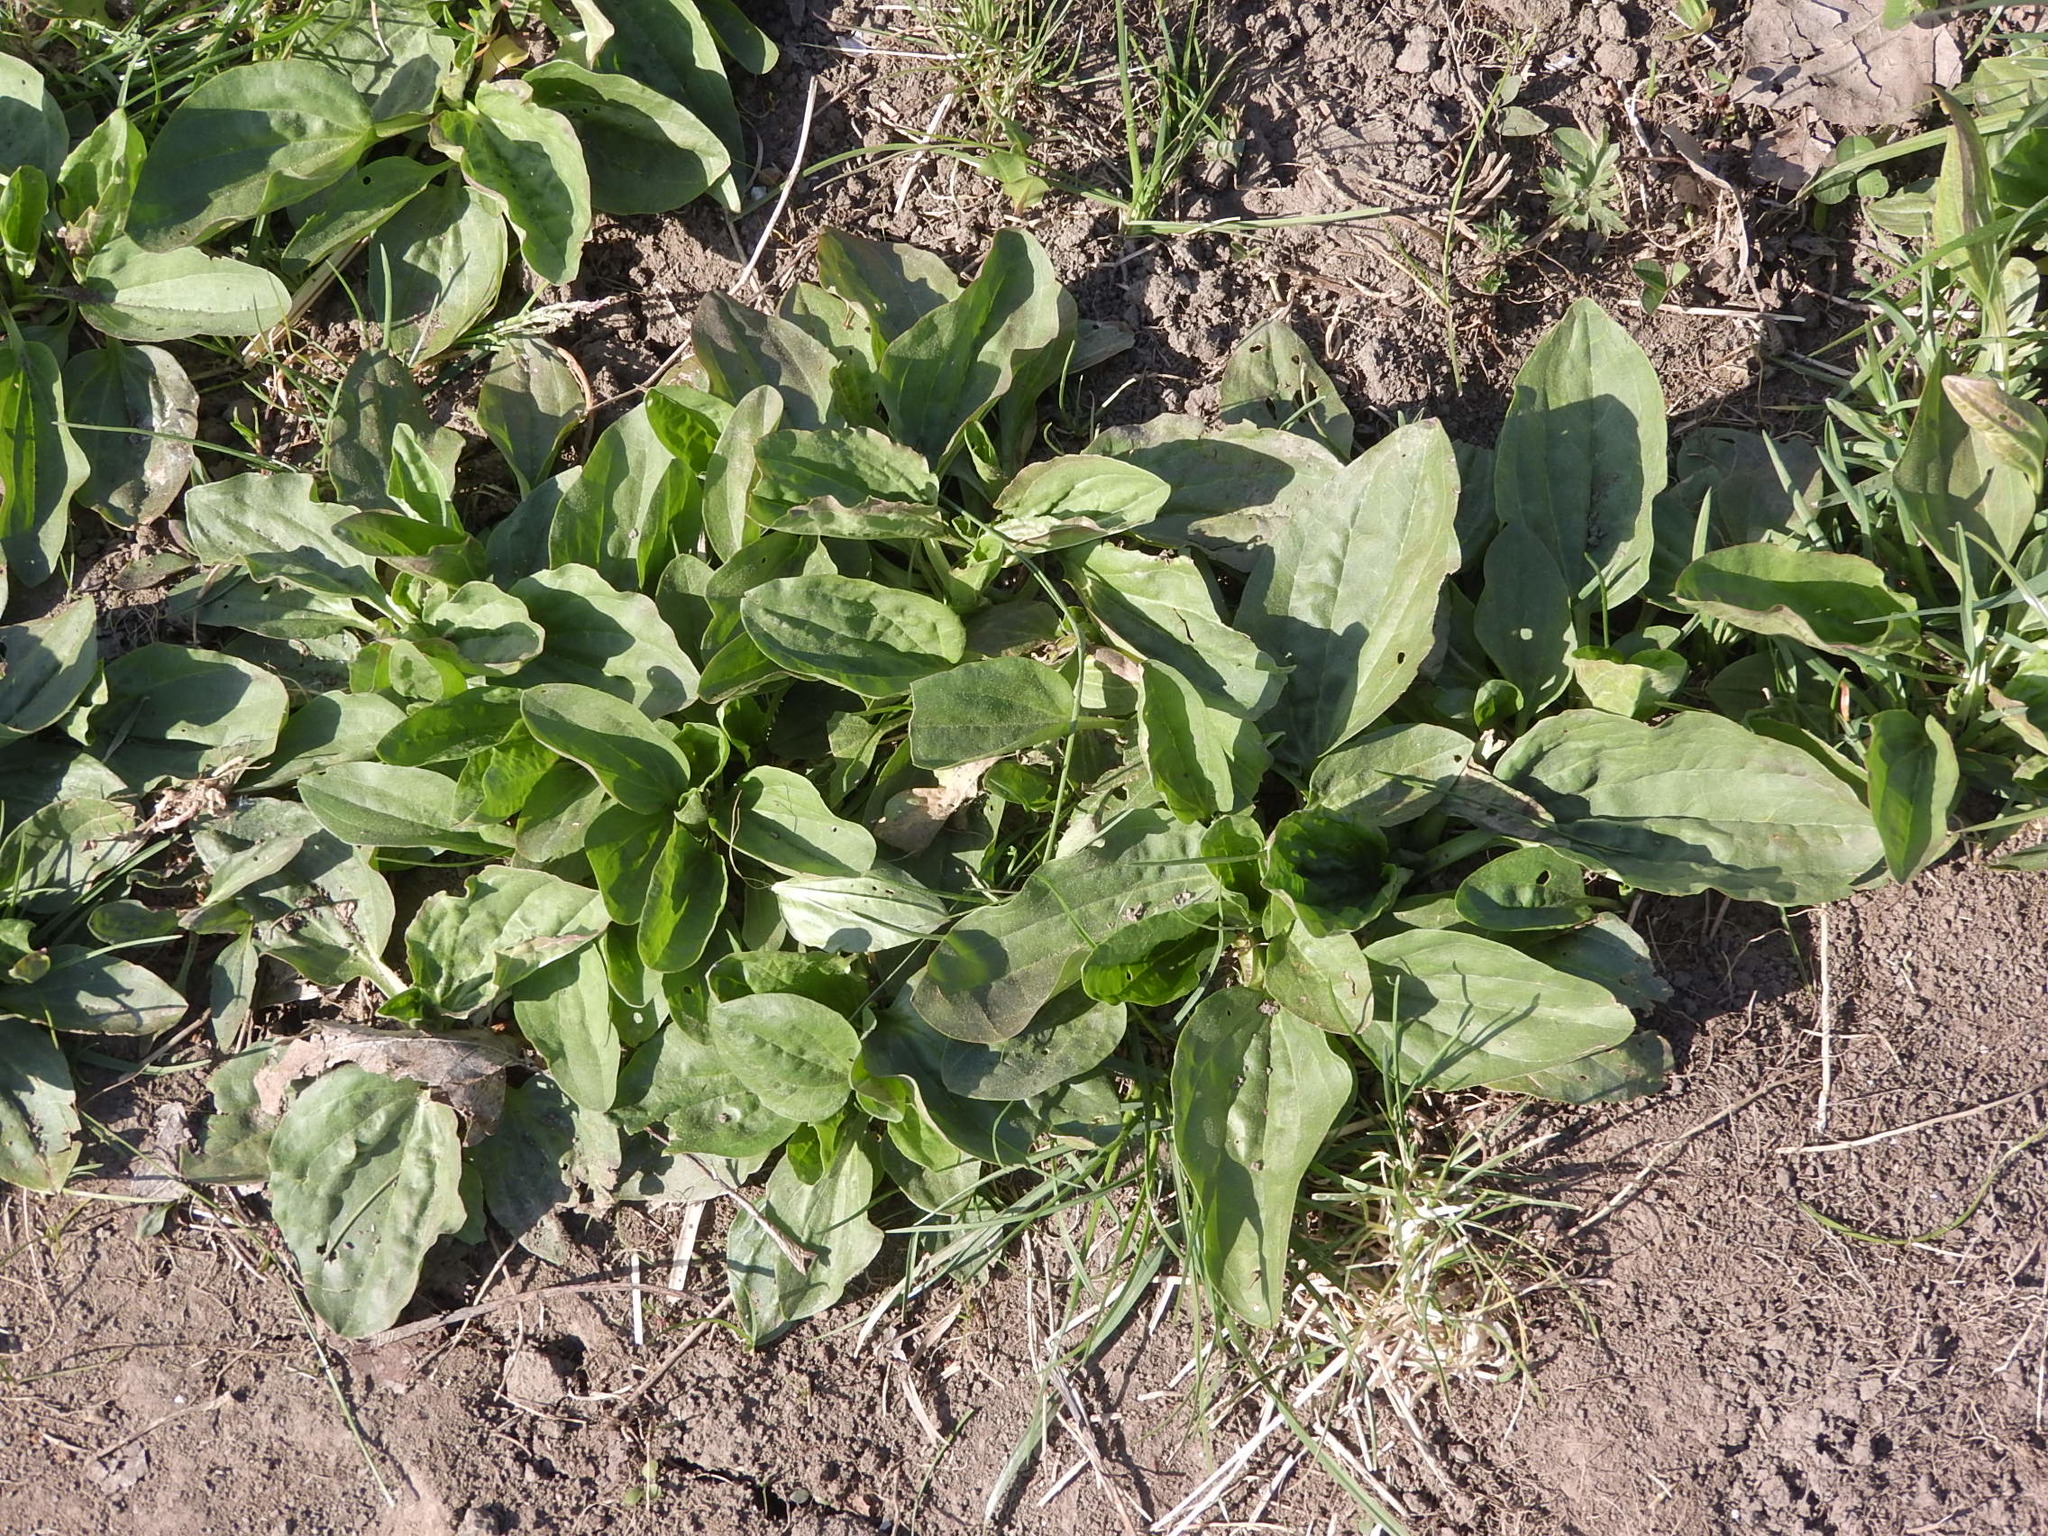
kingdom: Plantae
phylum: Tracheophyta
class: Magnoliopsida
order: Lamiales
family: Plantaginaceae
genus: Plantago
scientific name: Plantago major
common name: Common plantain
